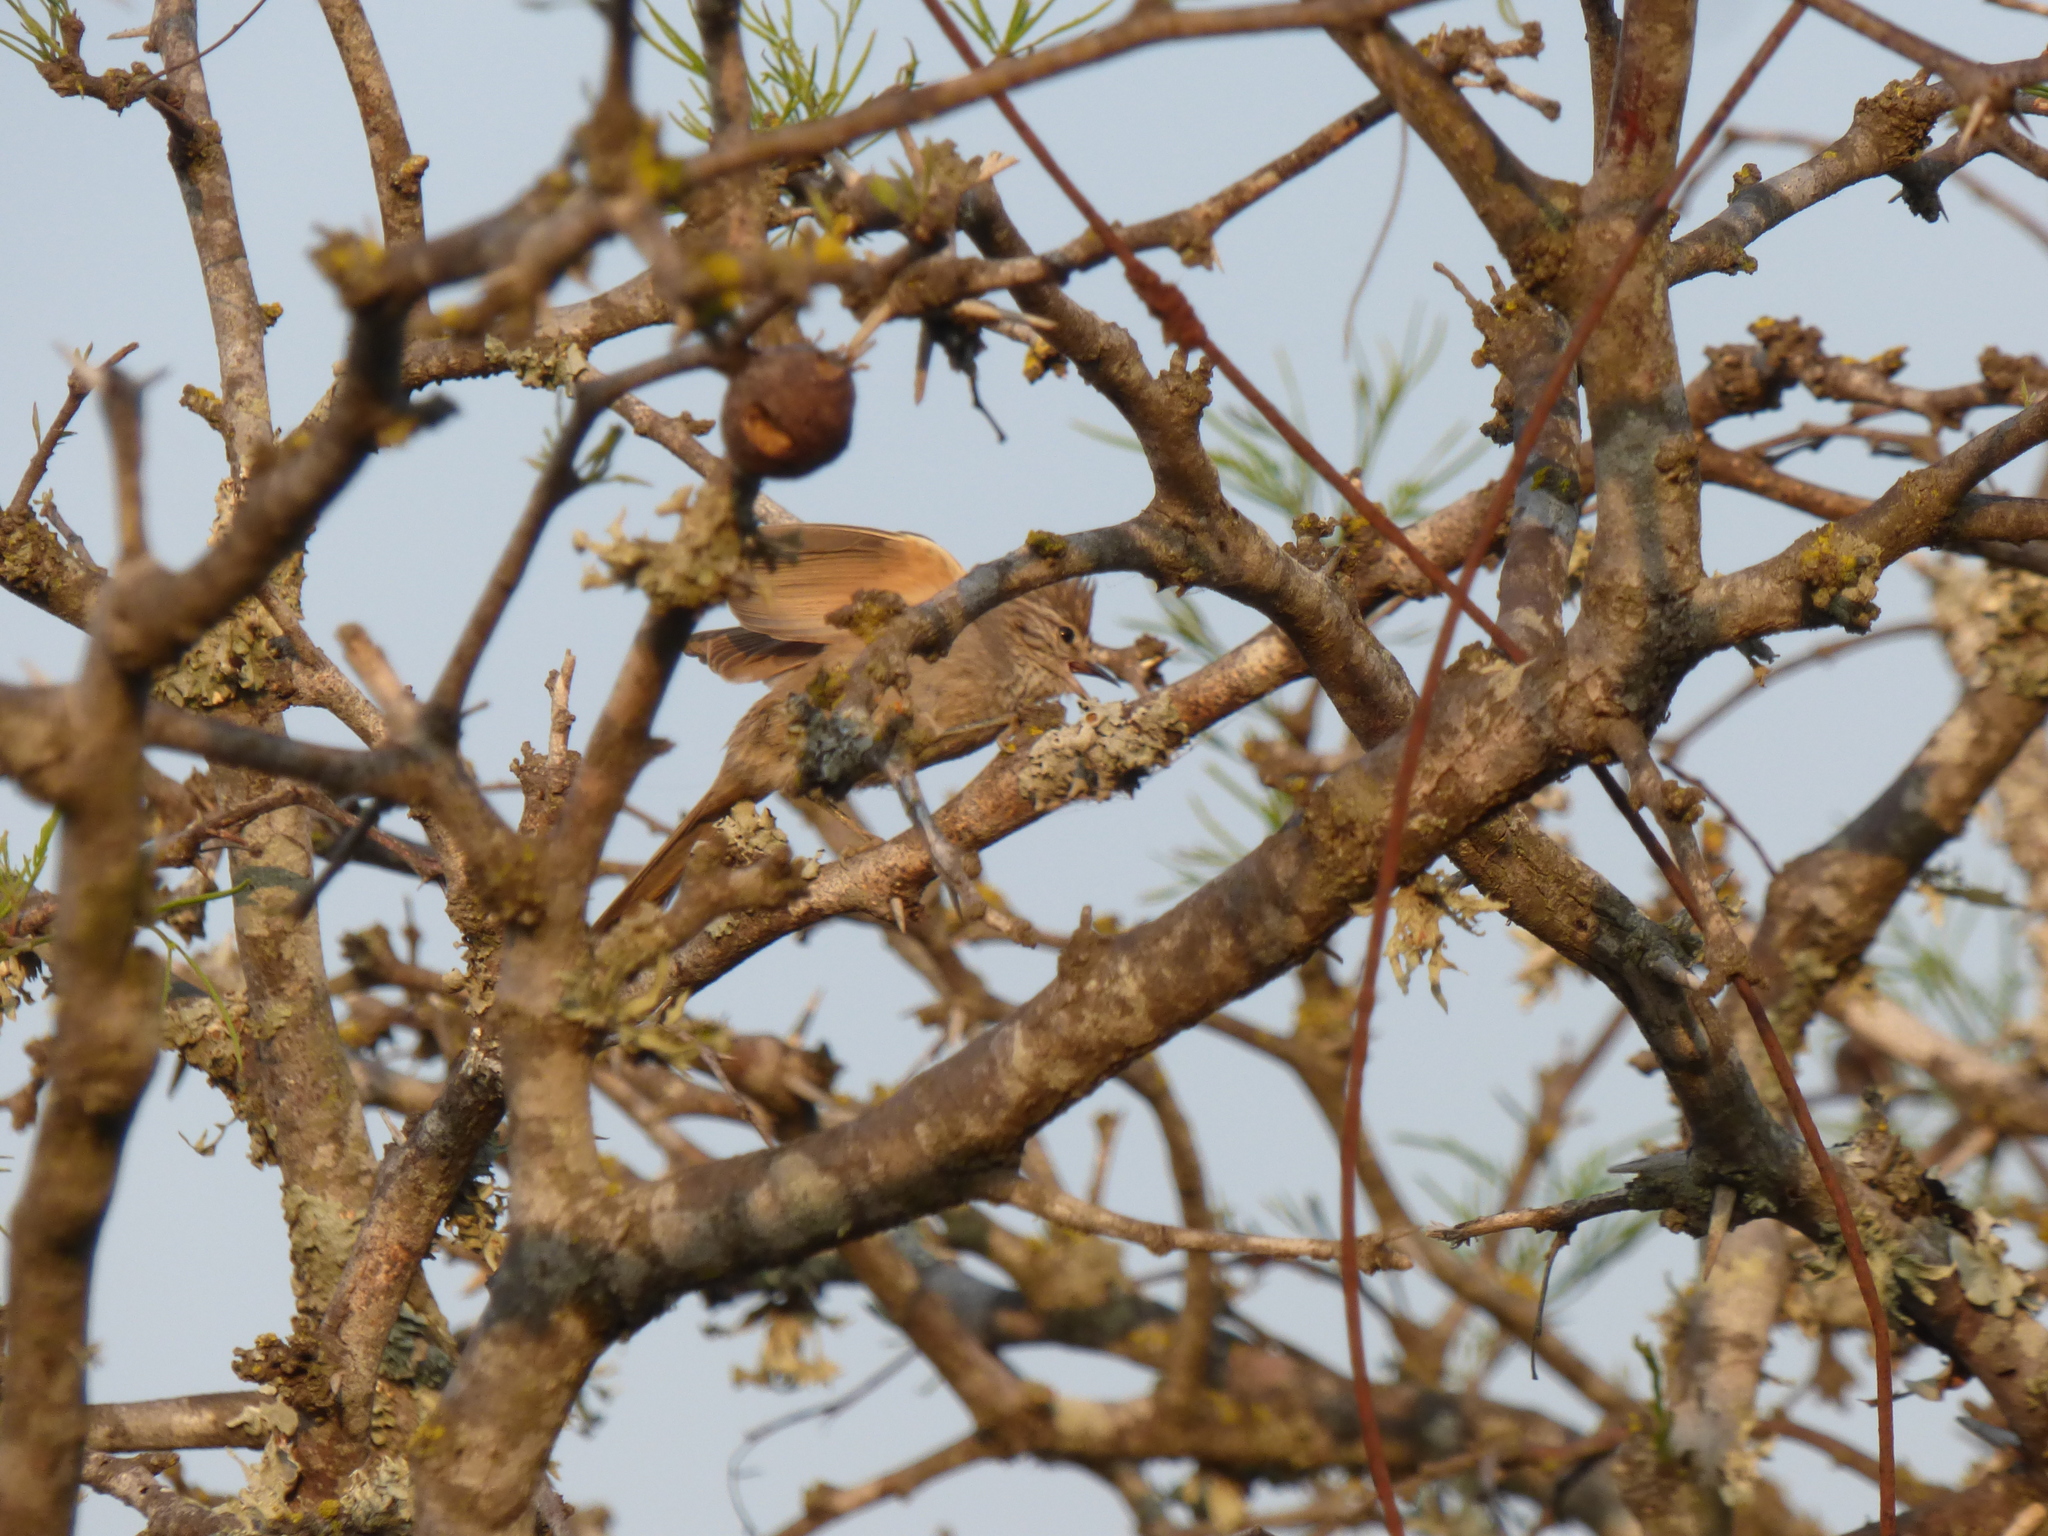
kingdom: Animalia
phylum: Chordata
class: Aves
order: Passeriformes
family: Furnariidae
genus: Leptasthenura
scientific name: Leptasthenura platensis
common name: Tufted tit-spinetail
